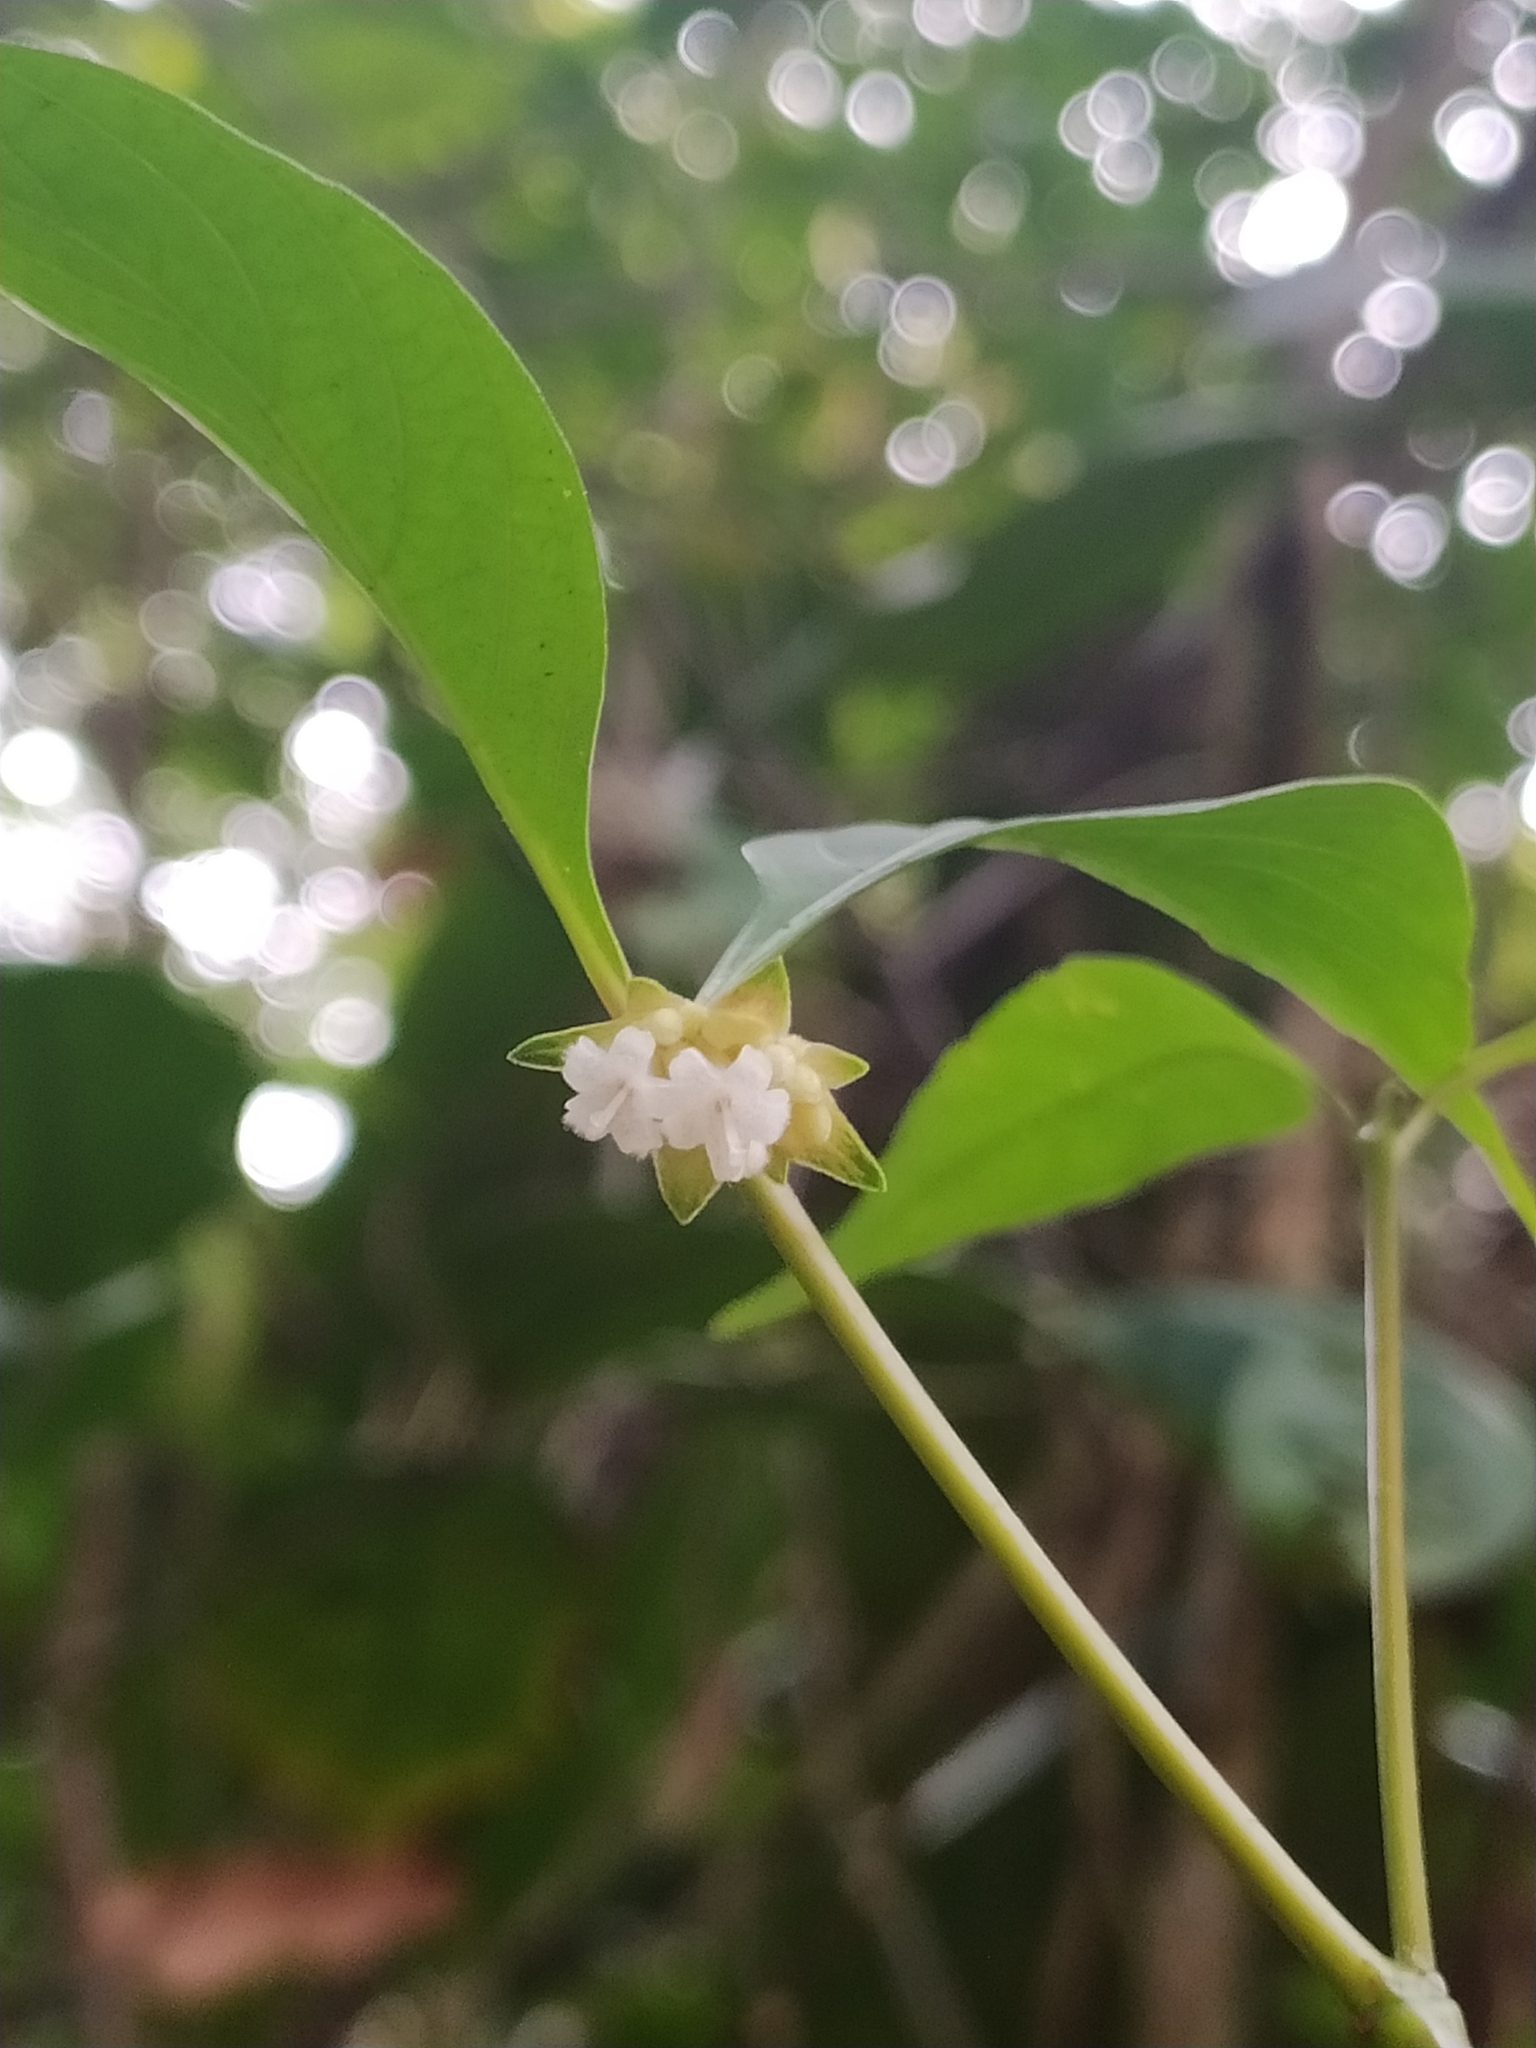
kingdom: Plantae
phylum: Tracheophyta
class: Magnoliopsida
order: Gentianales
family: Rubiaceae
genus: Palicourea
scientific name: Palicourea hoffmannseggiana
